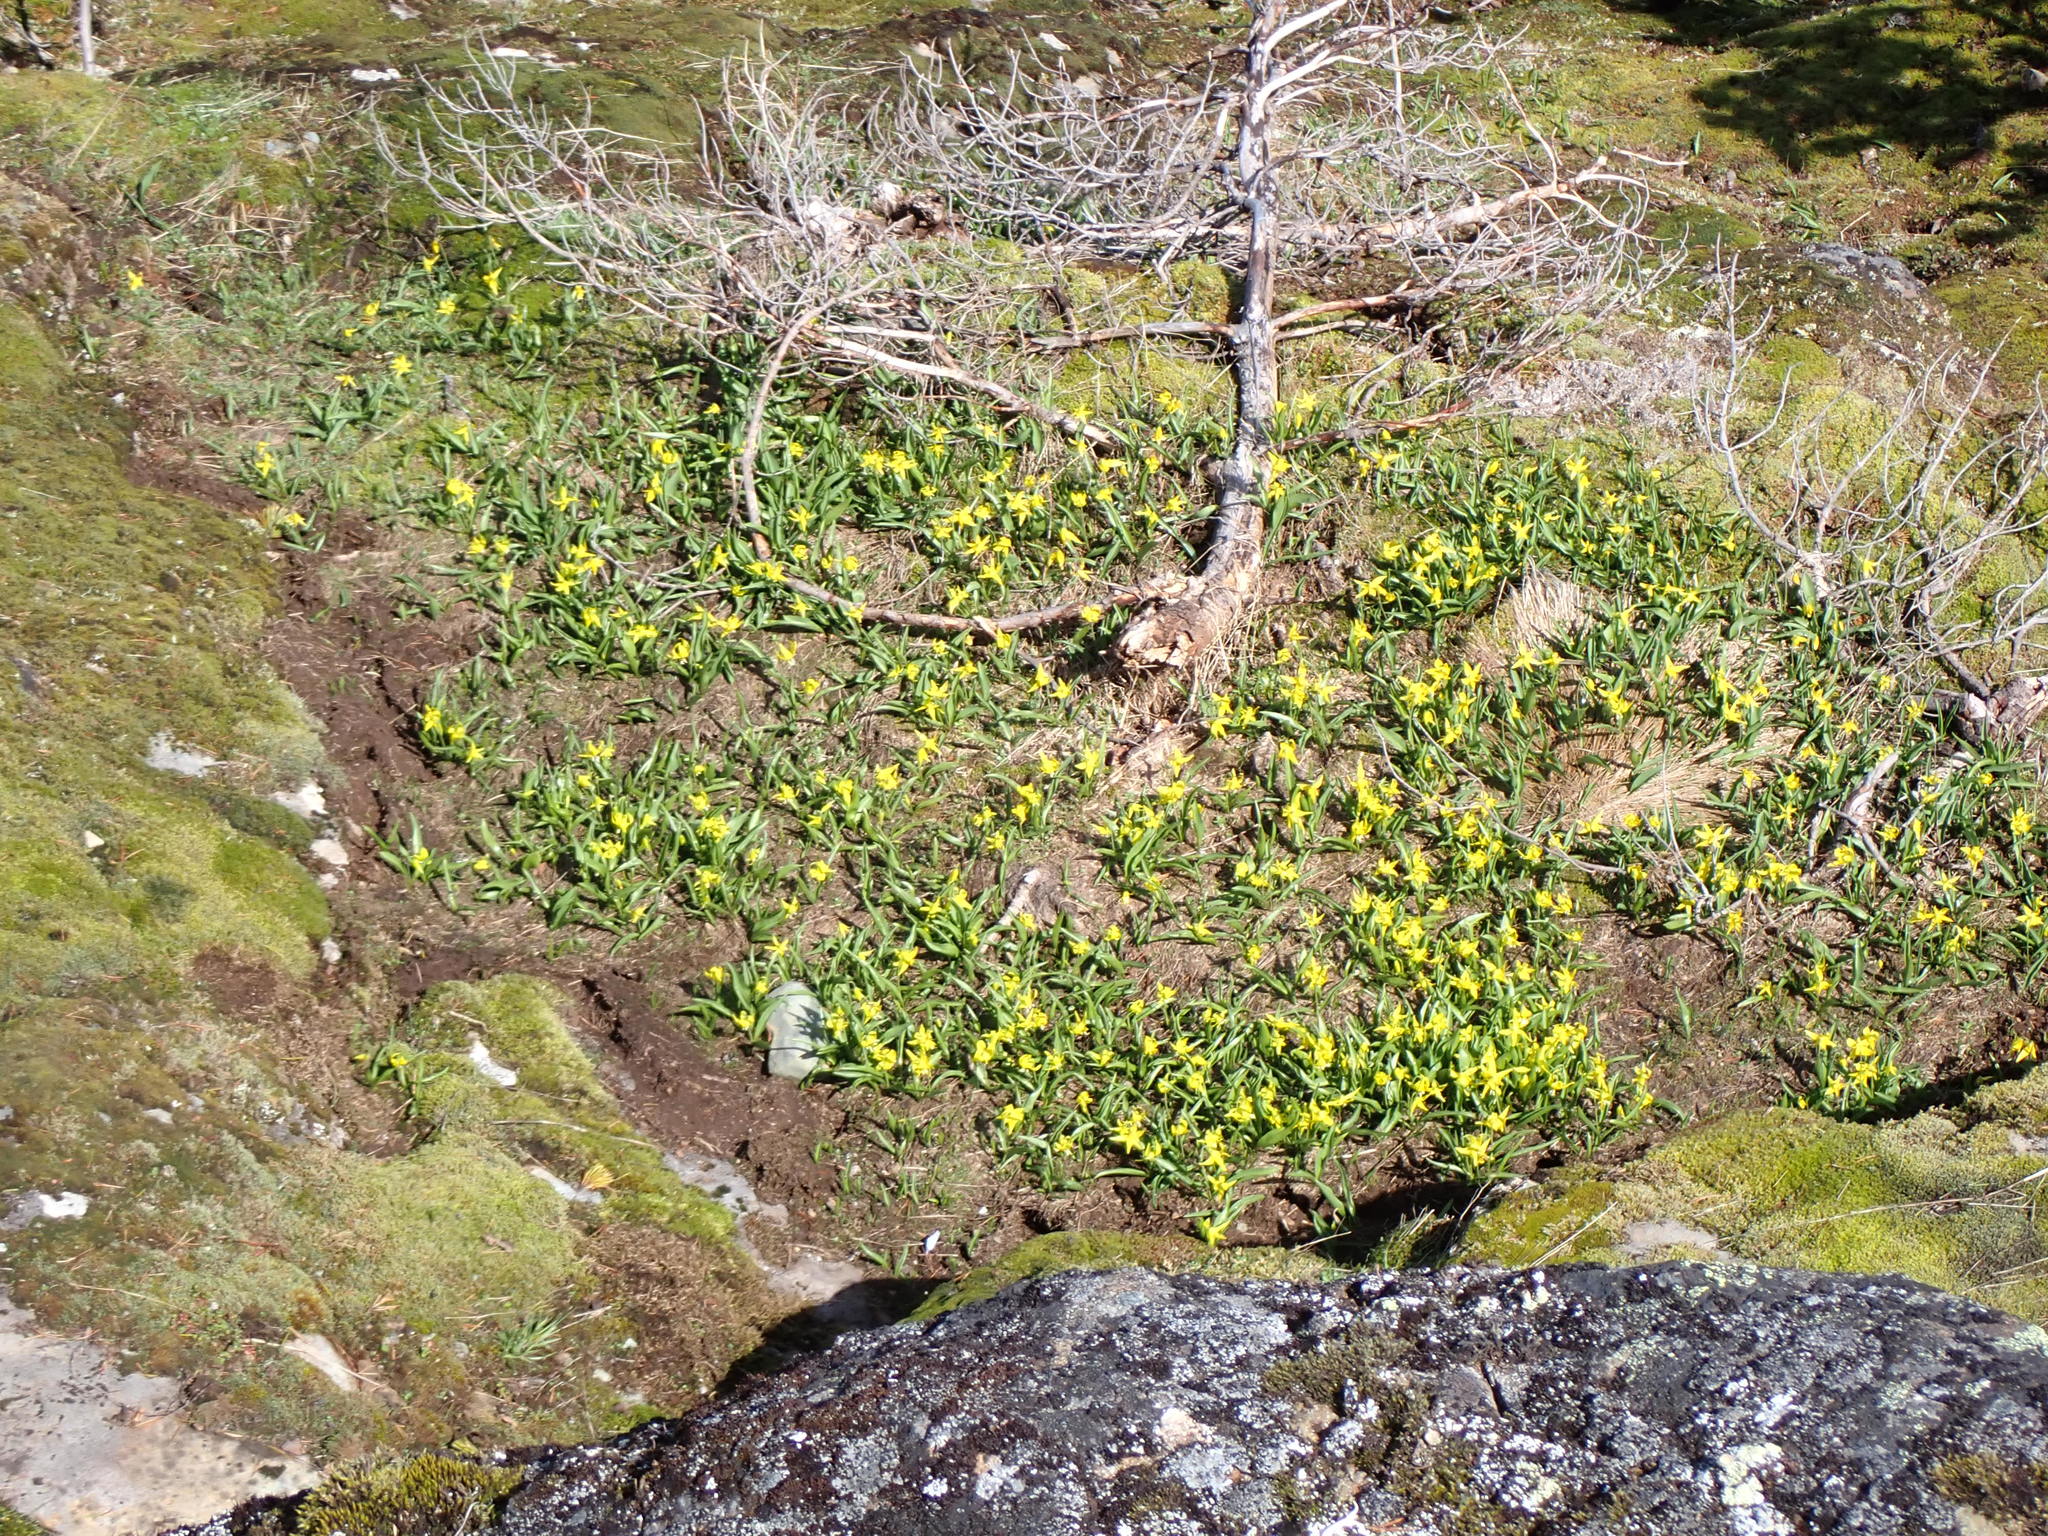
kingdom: Plantae
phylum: Tracheophyta
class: Liliopsida
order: Liliales
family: Liliaceae
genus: Erythronium
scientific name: Erythronium grandiflorum
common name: Avalanche-lily
